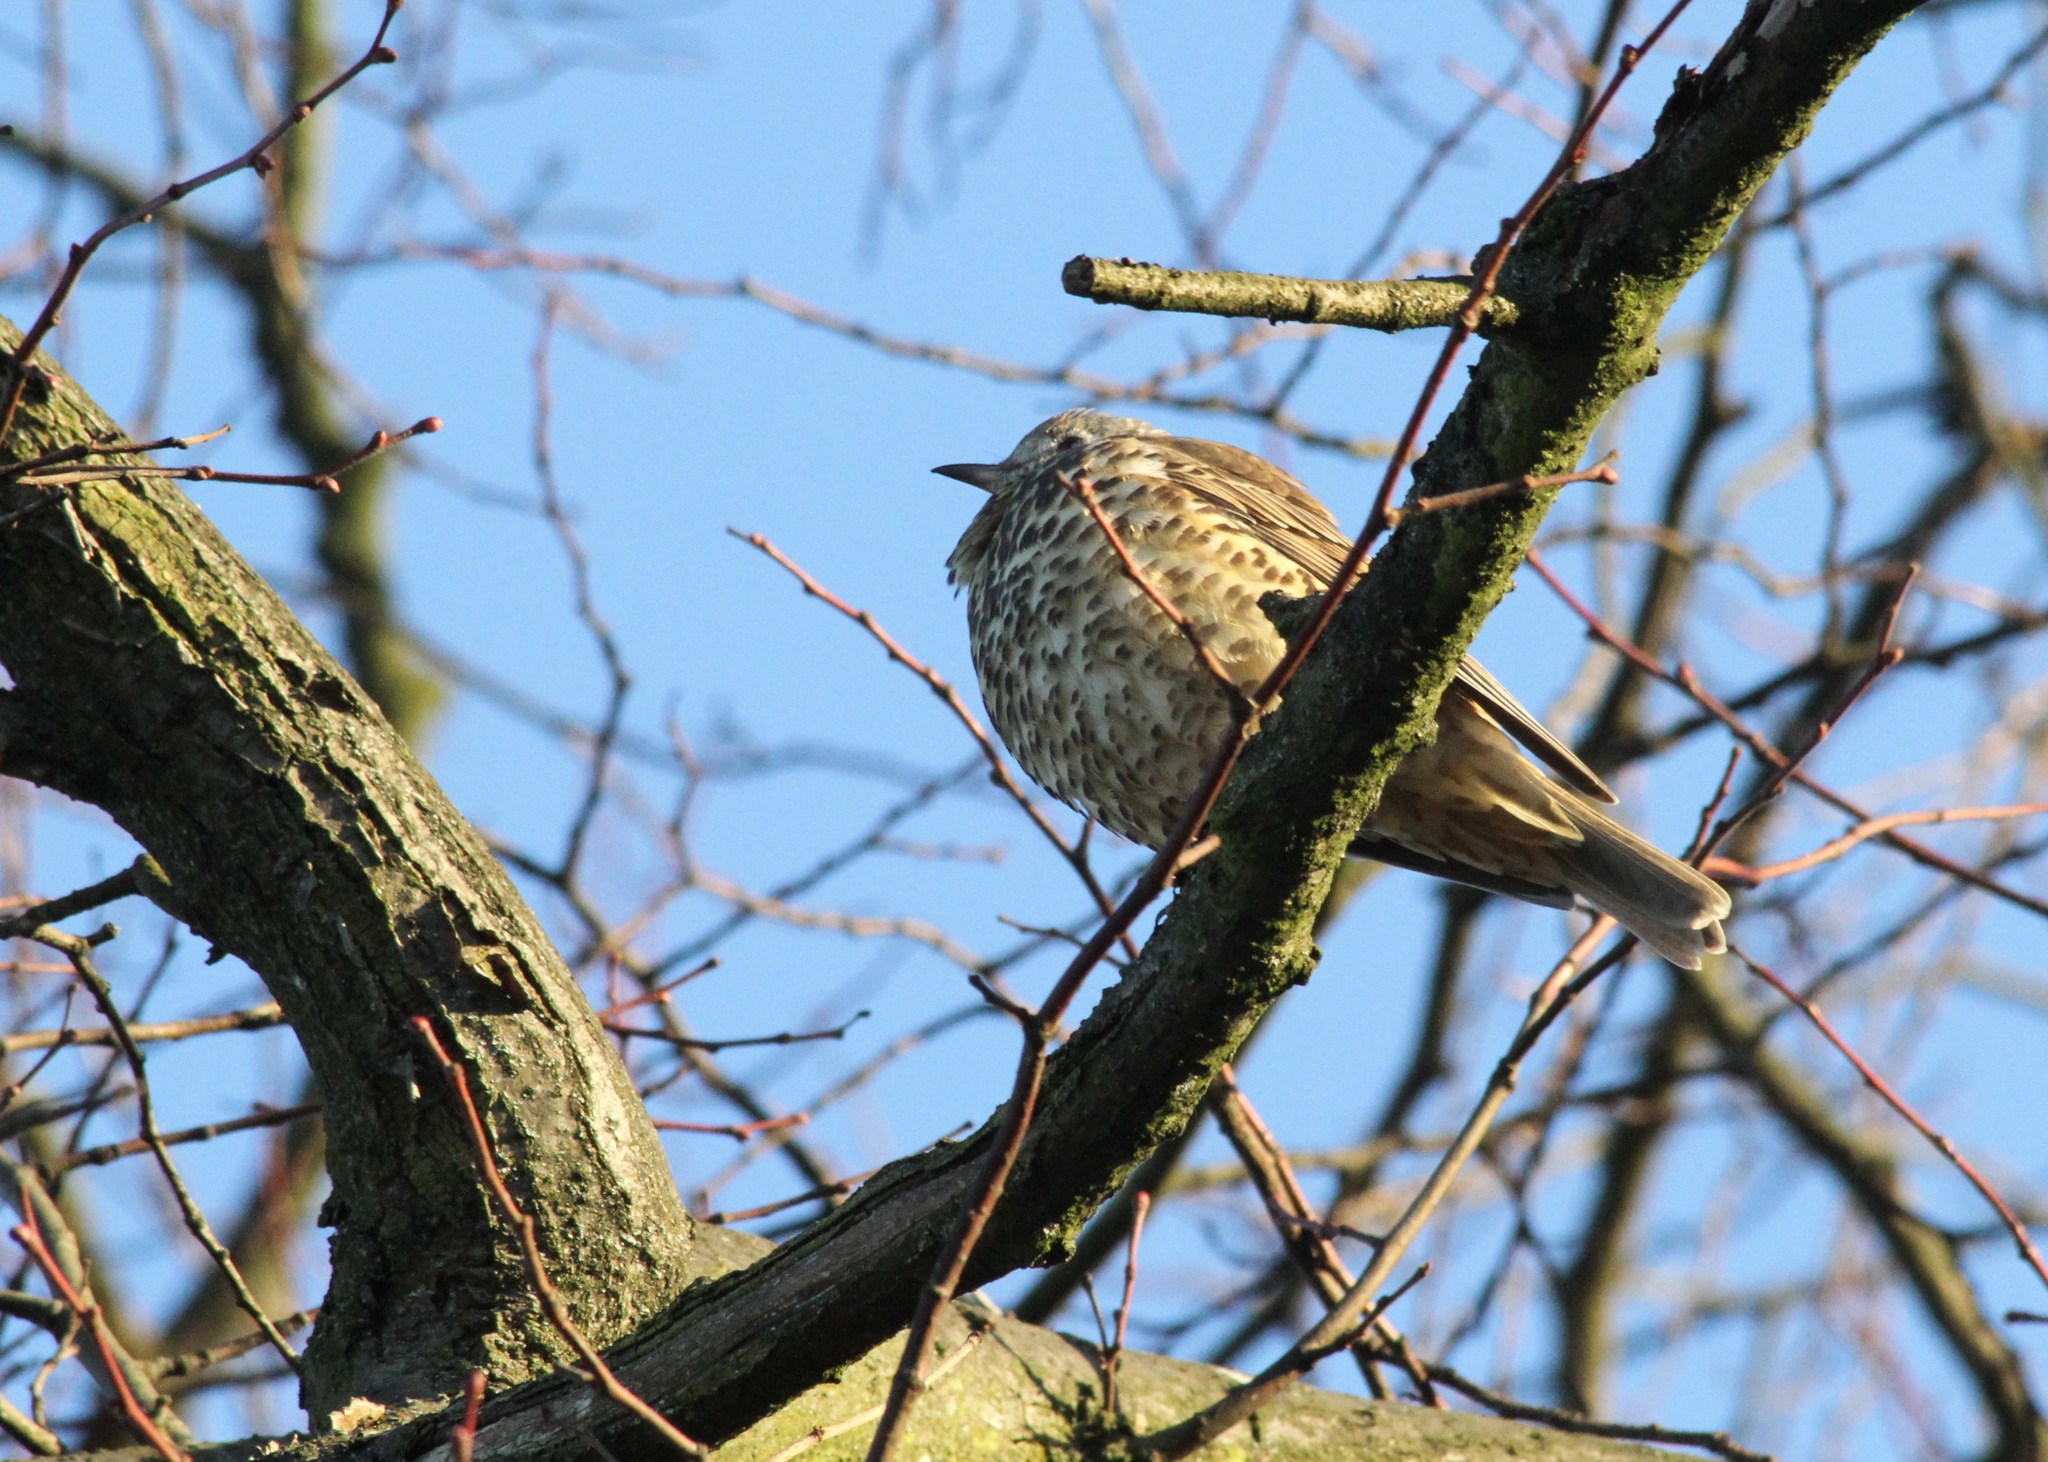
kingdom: Animalia
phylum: Chordata
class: Aves
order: Passeriformes
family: Turdidae
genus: Turdus
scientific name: Turdus viscivorus
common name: Mistle thrush
